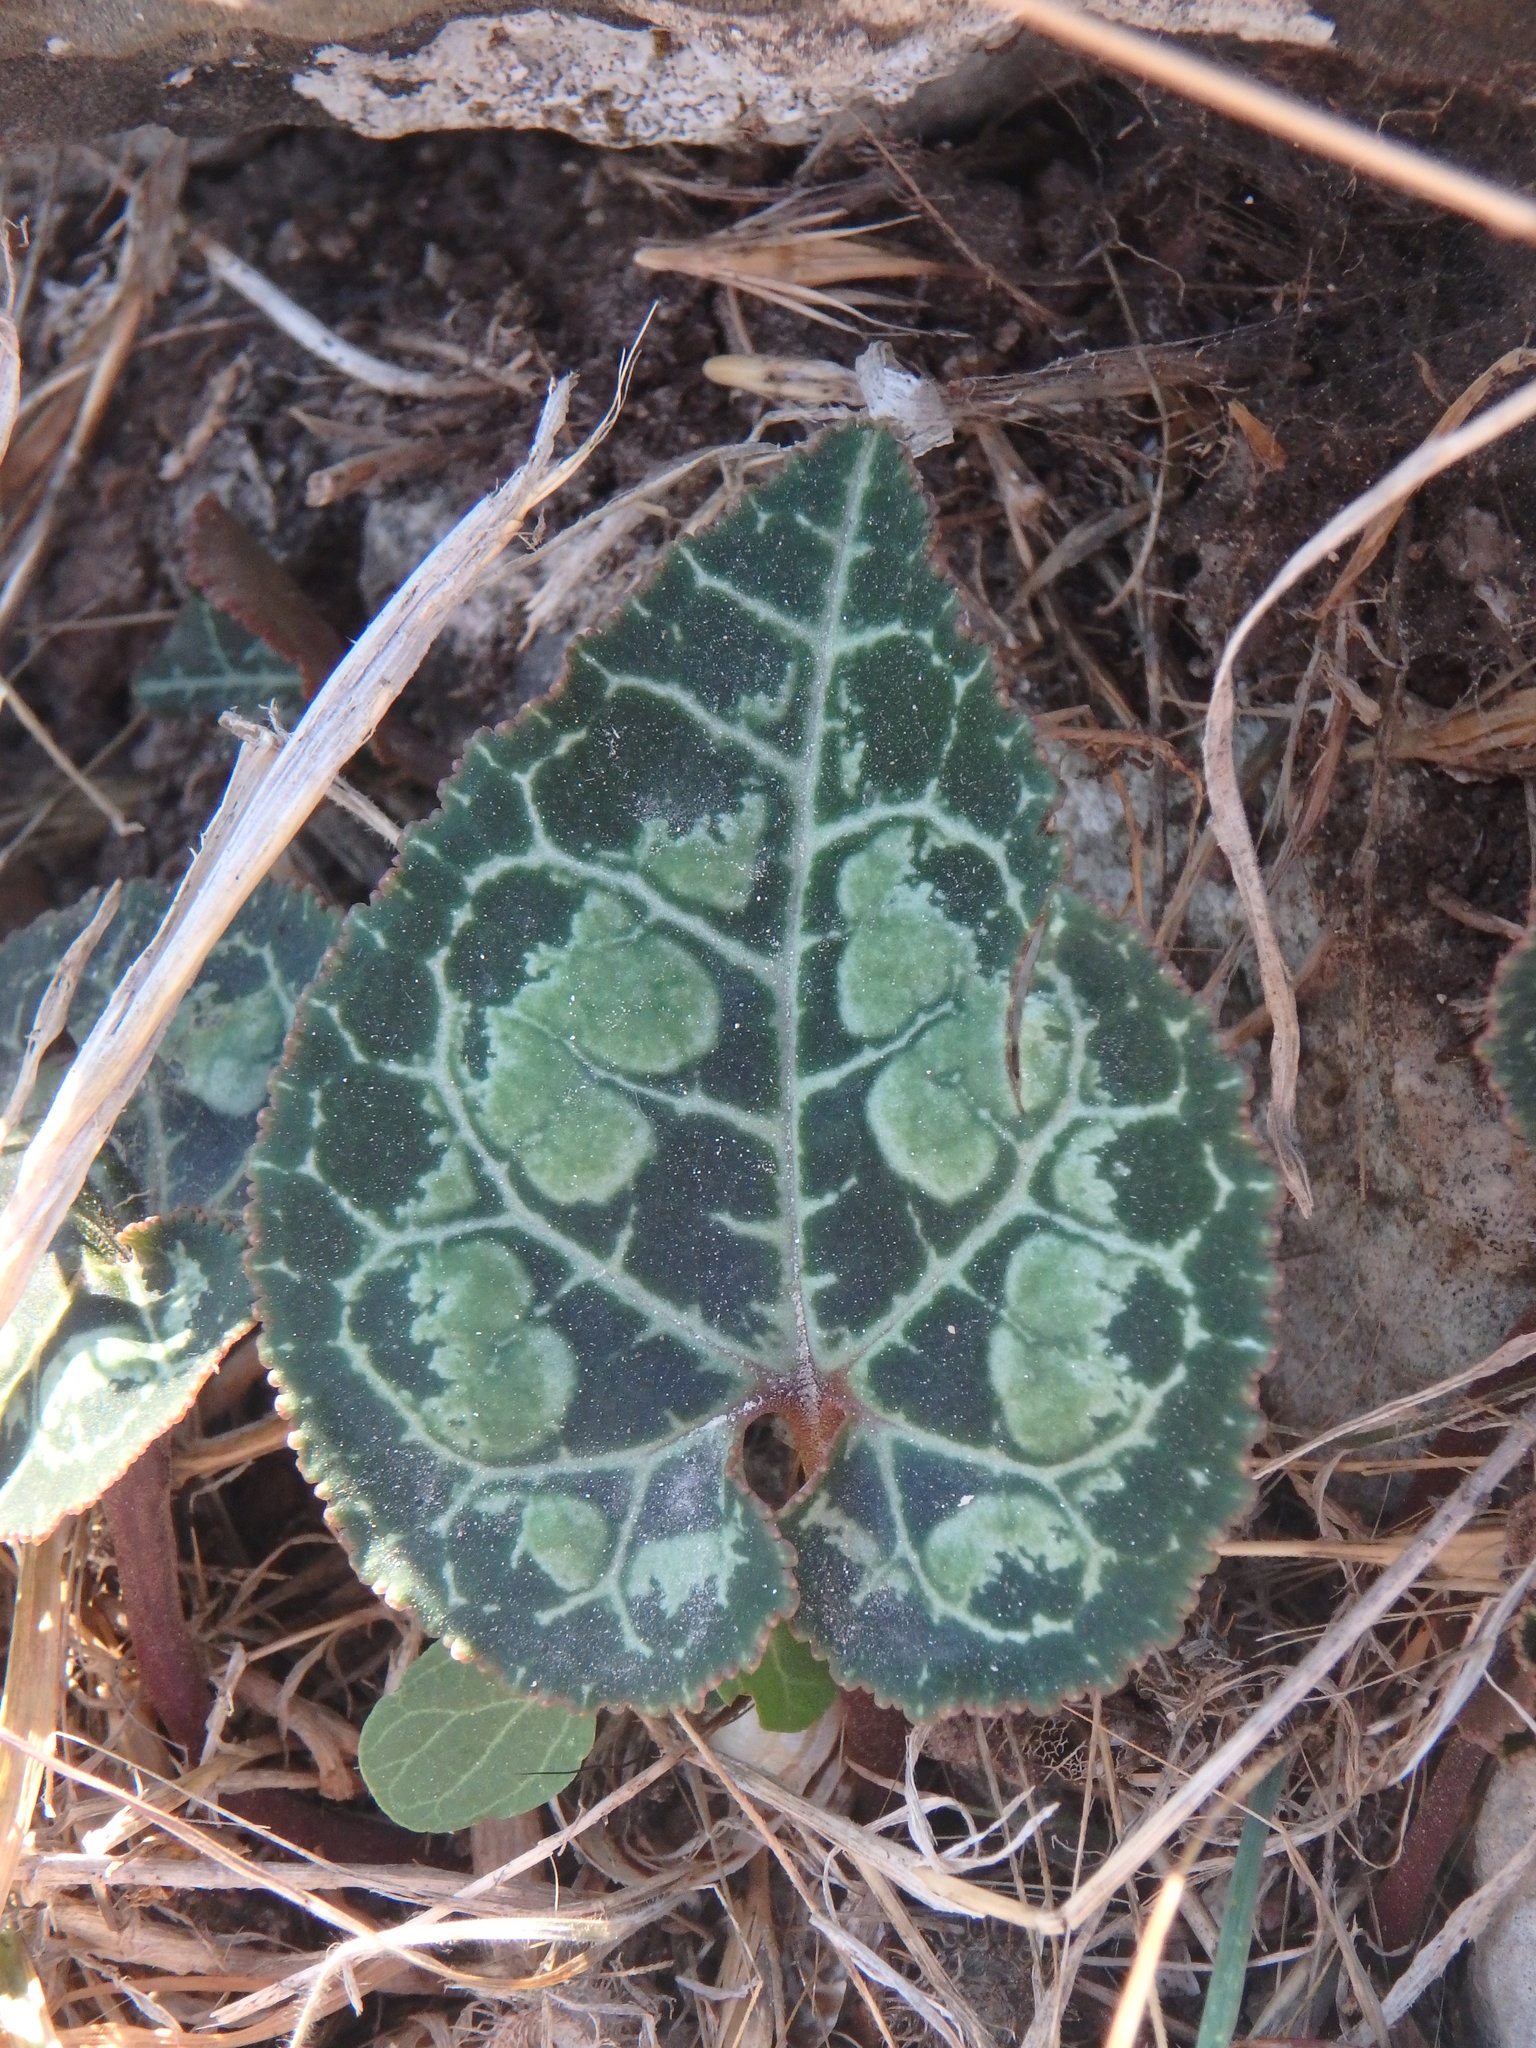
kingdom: Plantae
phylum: Tracheophyta
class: Magnoliopsida
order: Ericales
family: Primulaceae
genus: Cyclamen
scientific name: Cyclamen graecum
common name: Greek cyclamen
